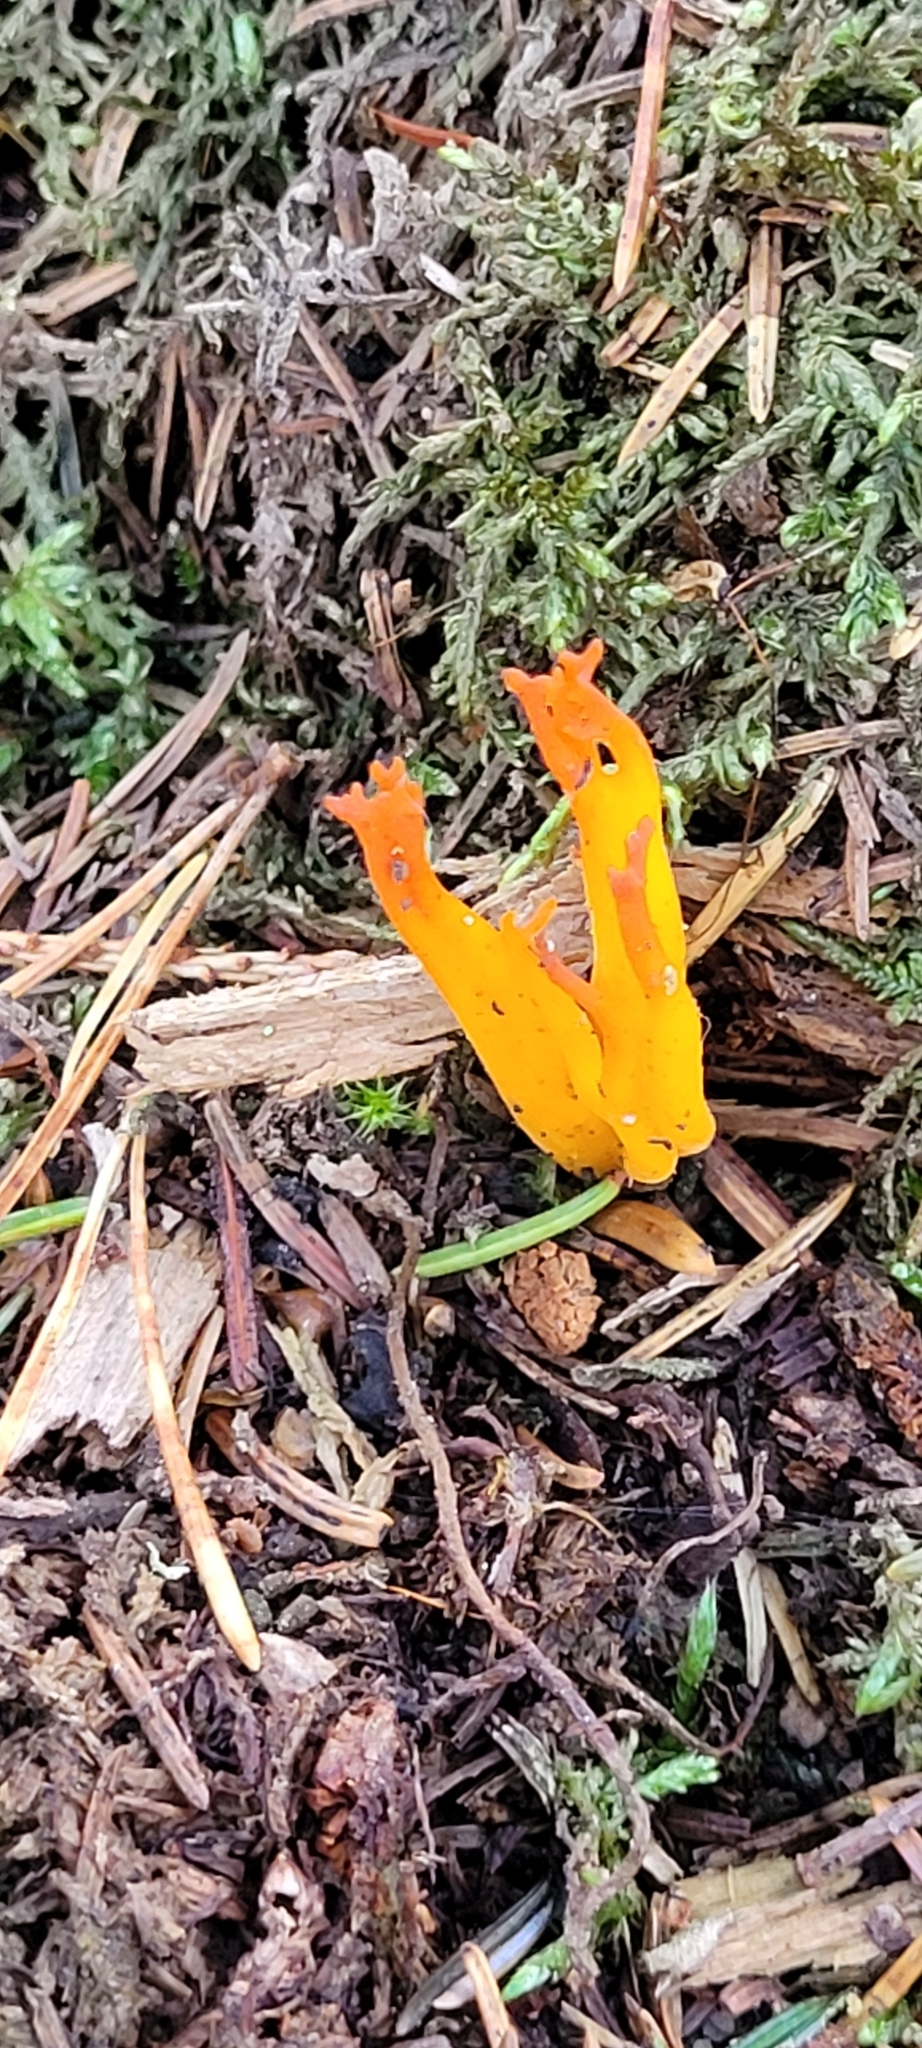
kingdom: Fungi
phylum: Basidiomycota
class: Dacrymycetes
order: Dacrymycetales
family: Dacrymycetaceae
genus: Calocera
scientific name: Calocera viscosa
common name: Yellow stagshorn
